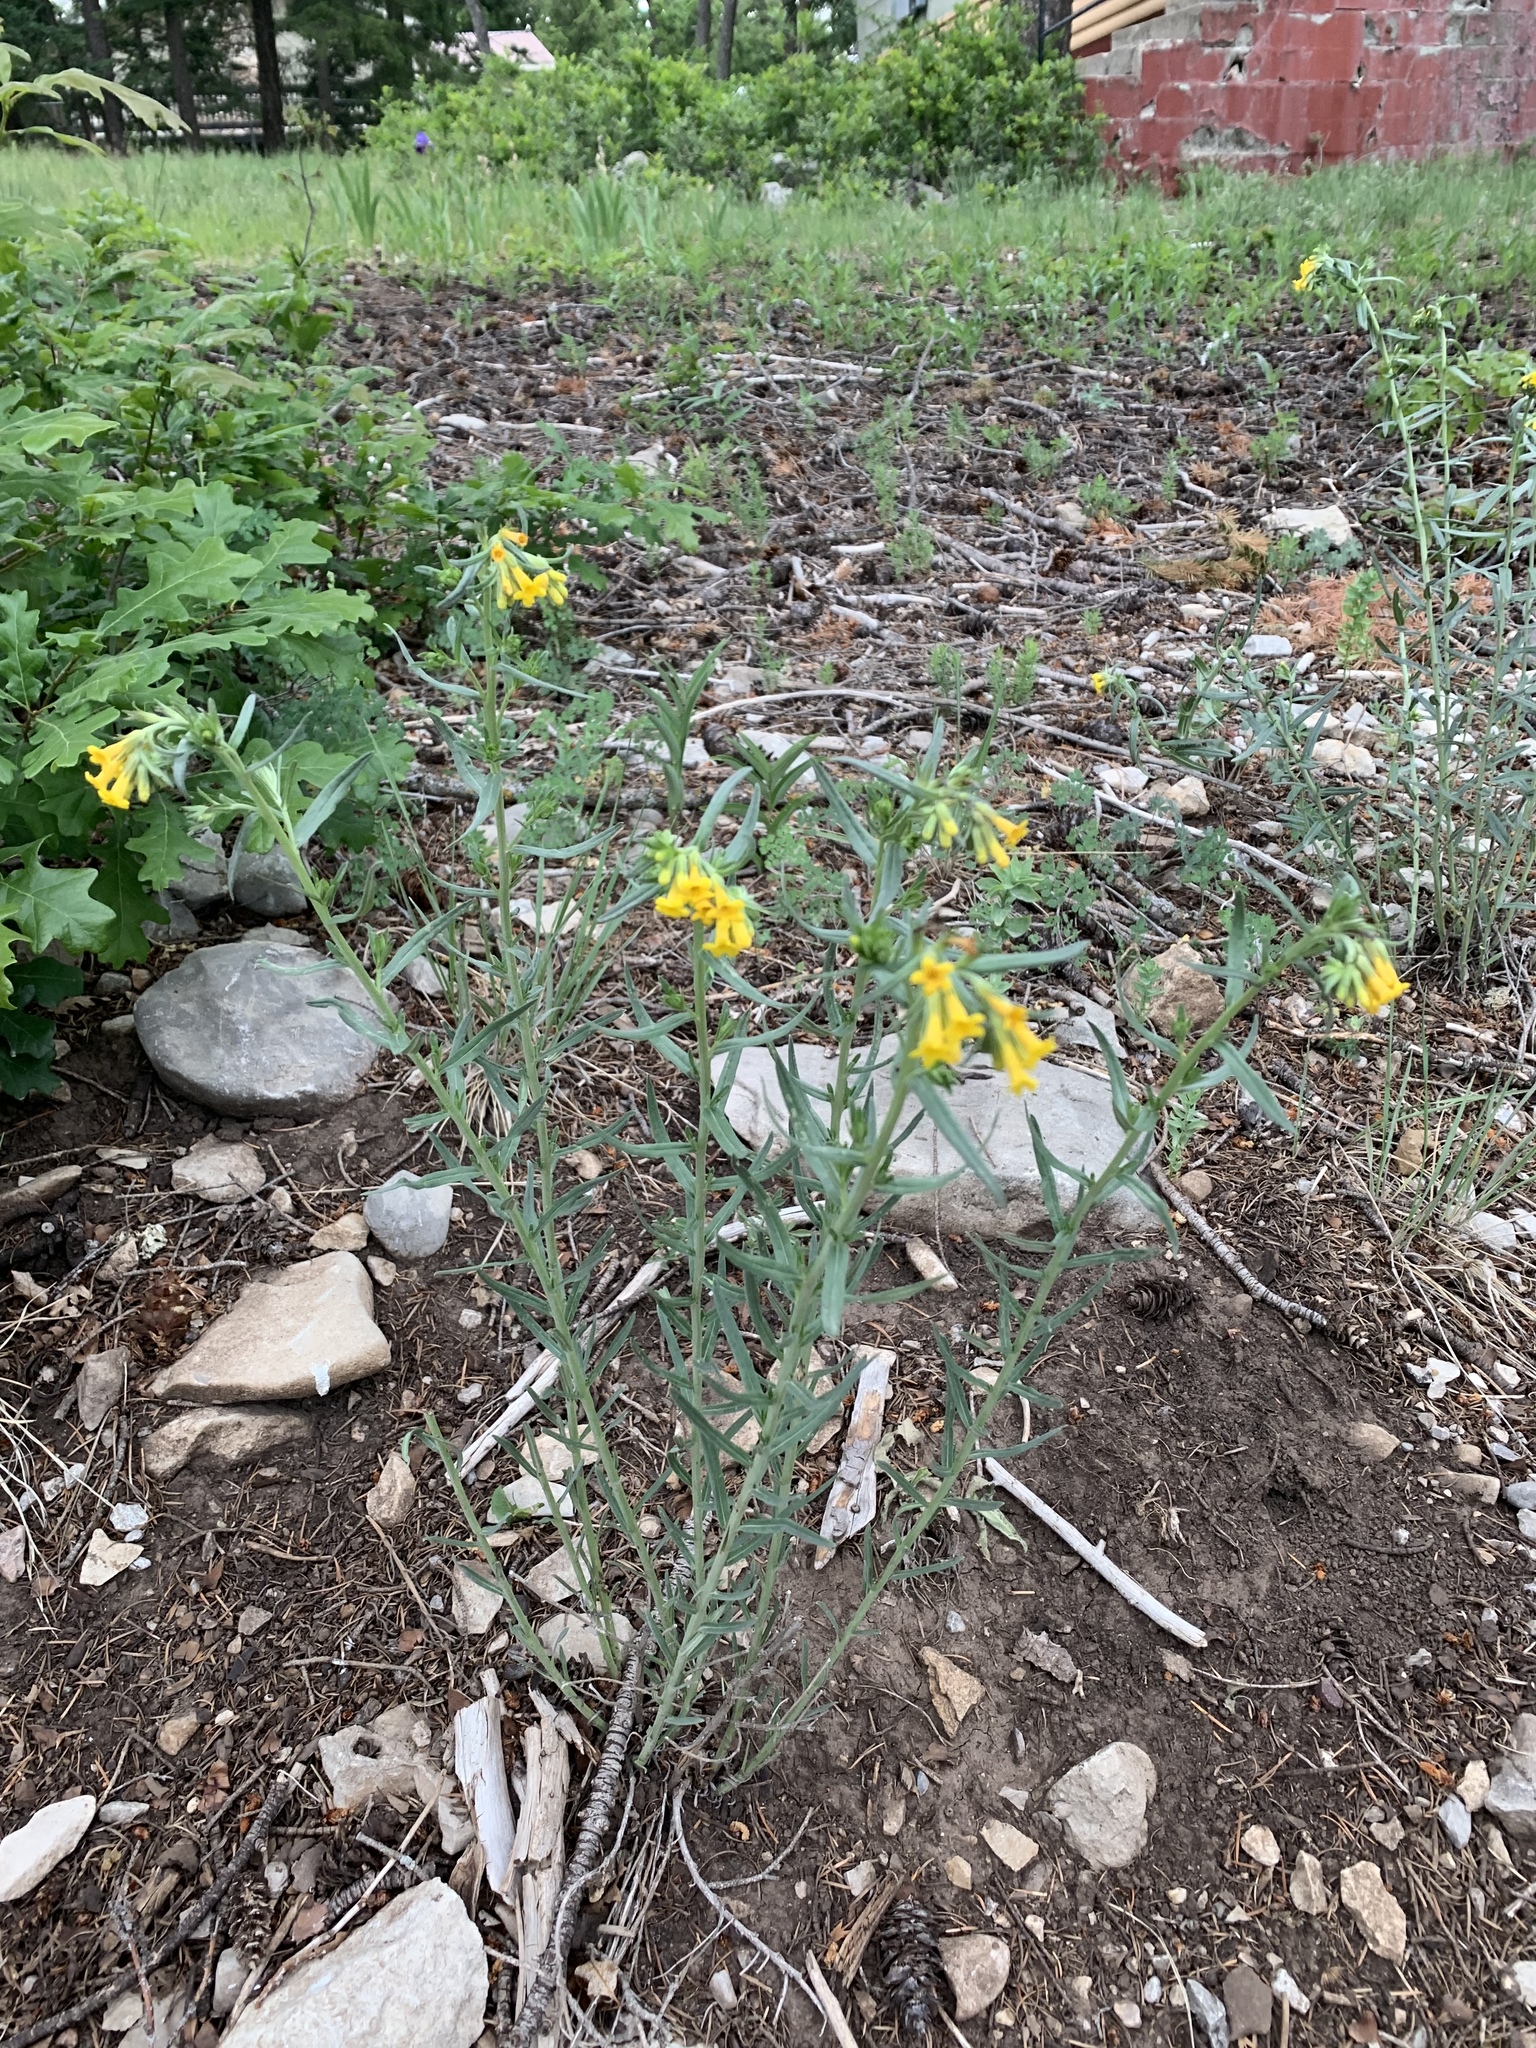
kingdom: Plantae
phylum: Tracheophyta
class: Magnoliopsida
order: Boraginales
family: Boraginaceae
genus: Lithospermum
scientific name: Lithospermum multiflorum
